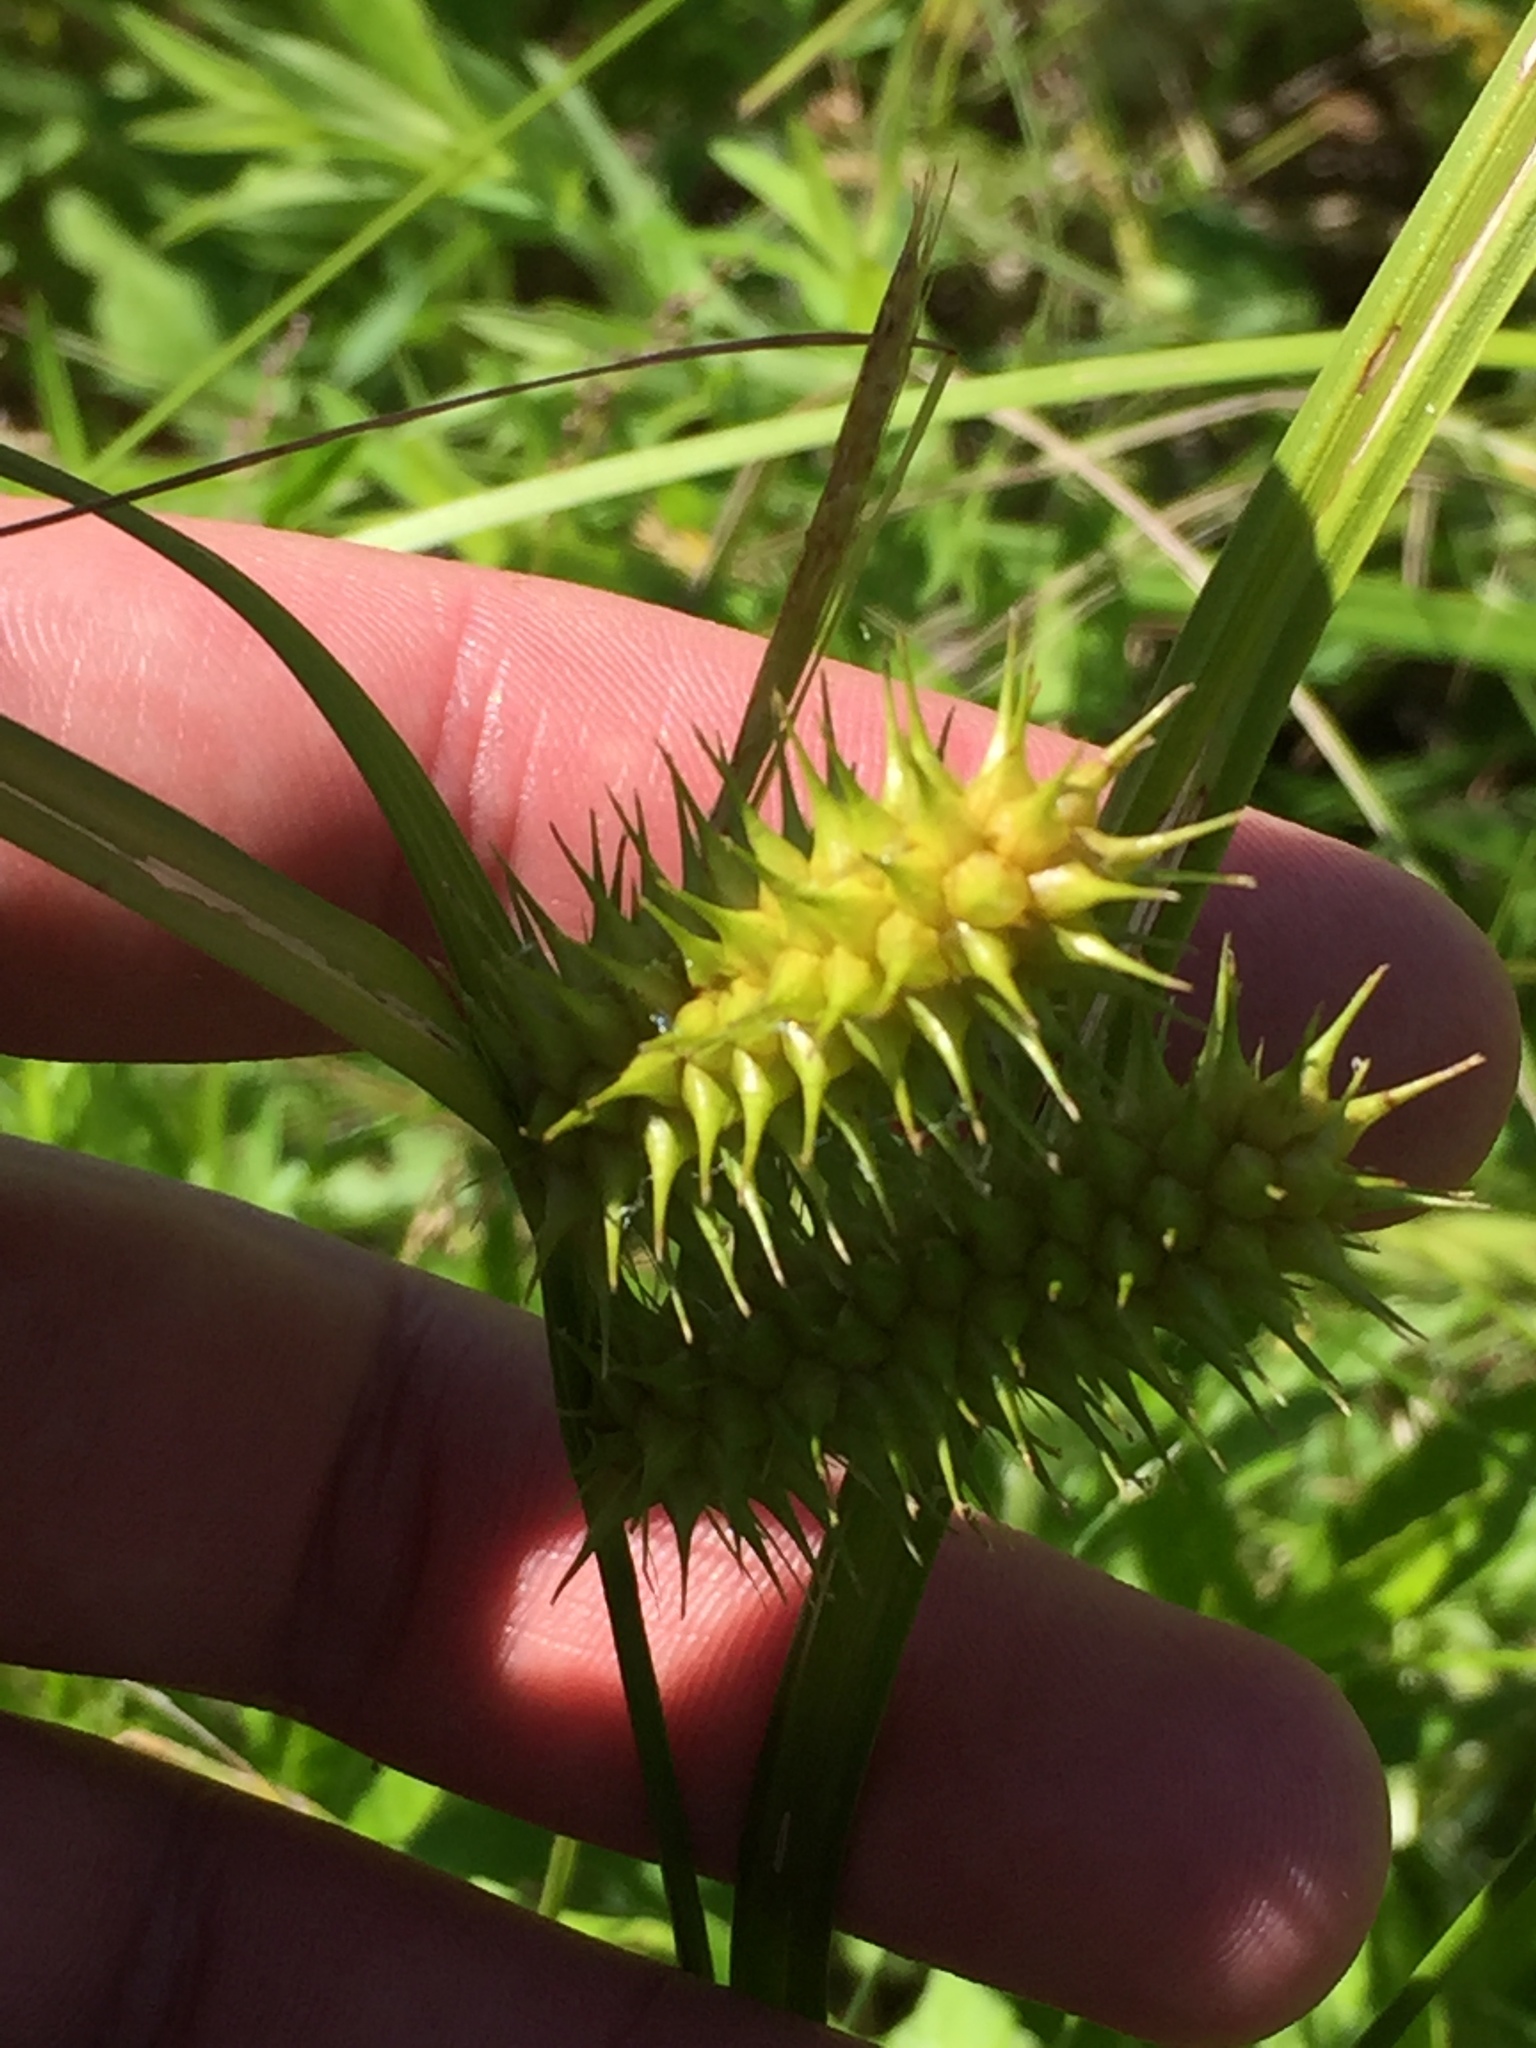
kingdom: Plantae
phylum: Tracheophyta
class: Liliopsida
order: Poales
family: Cyperaceae
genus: Carex
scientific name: Carex lurida
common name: Sallow sedge
